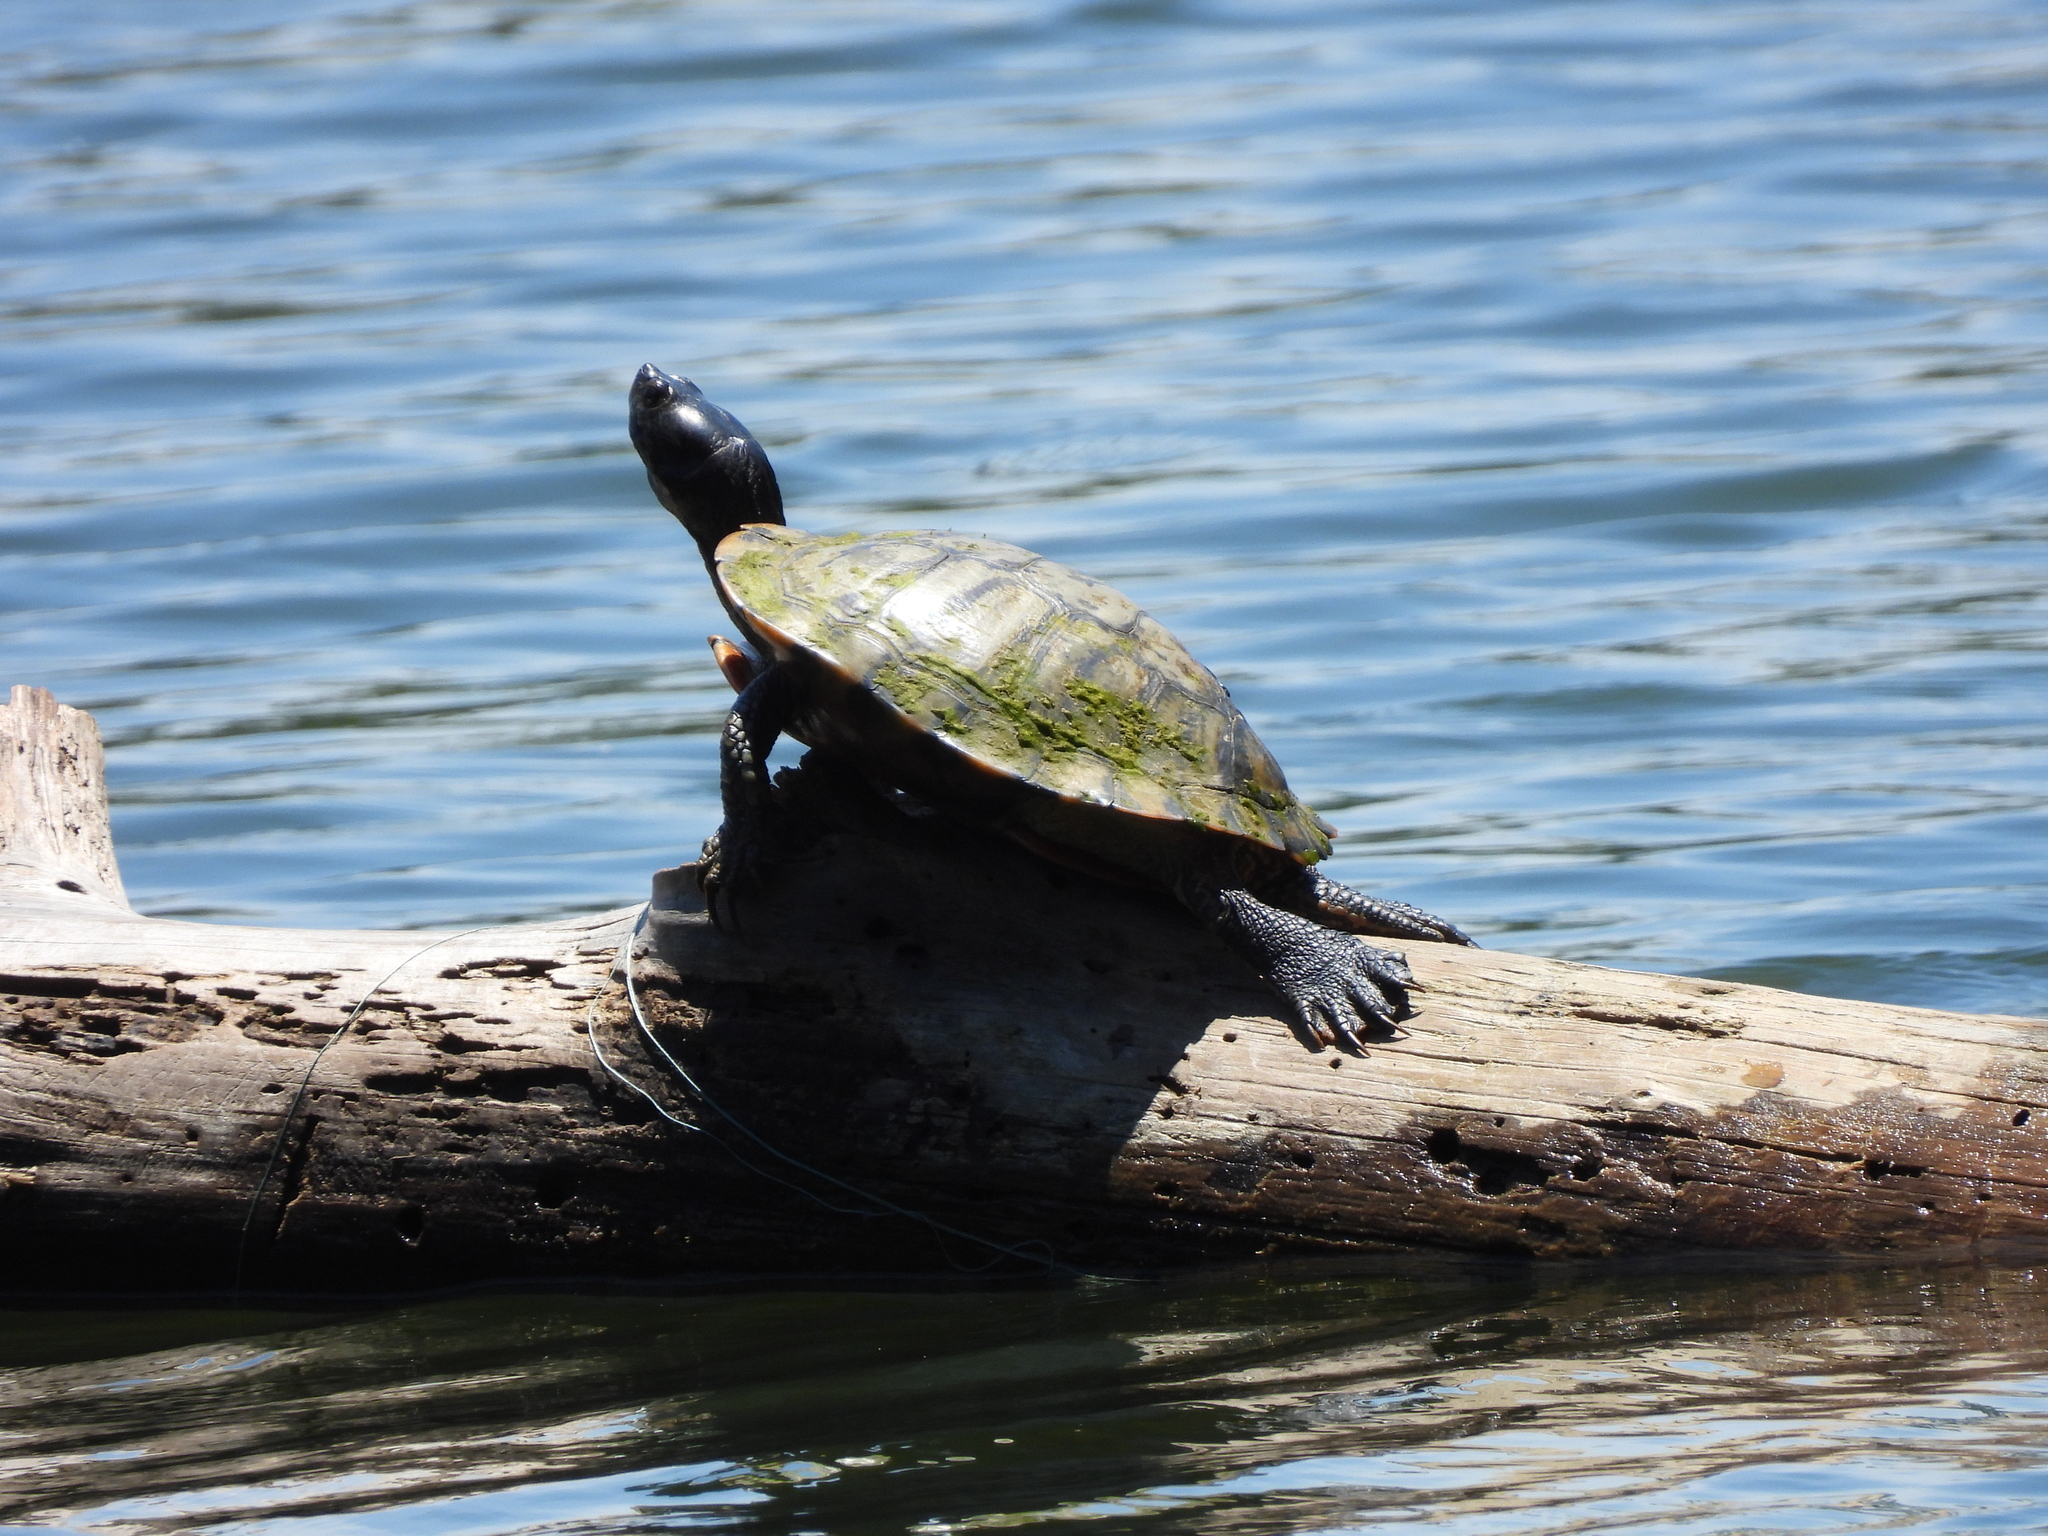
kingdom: Animalia
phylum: Chordata
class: Testudines
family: Emydidae
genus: Trachemys
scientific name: Trachemys scripta
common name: Slider
